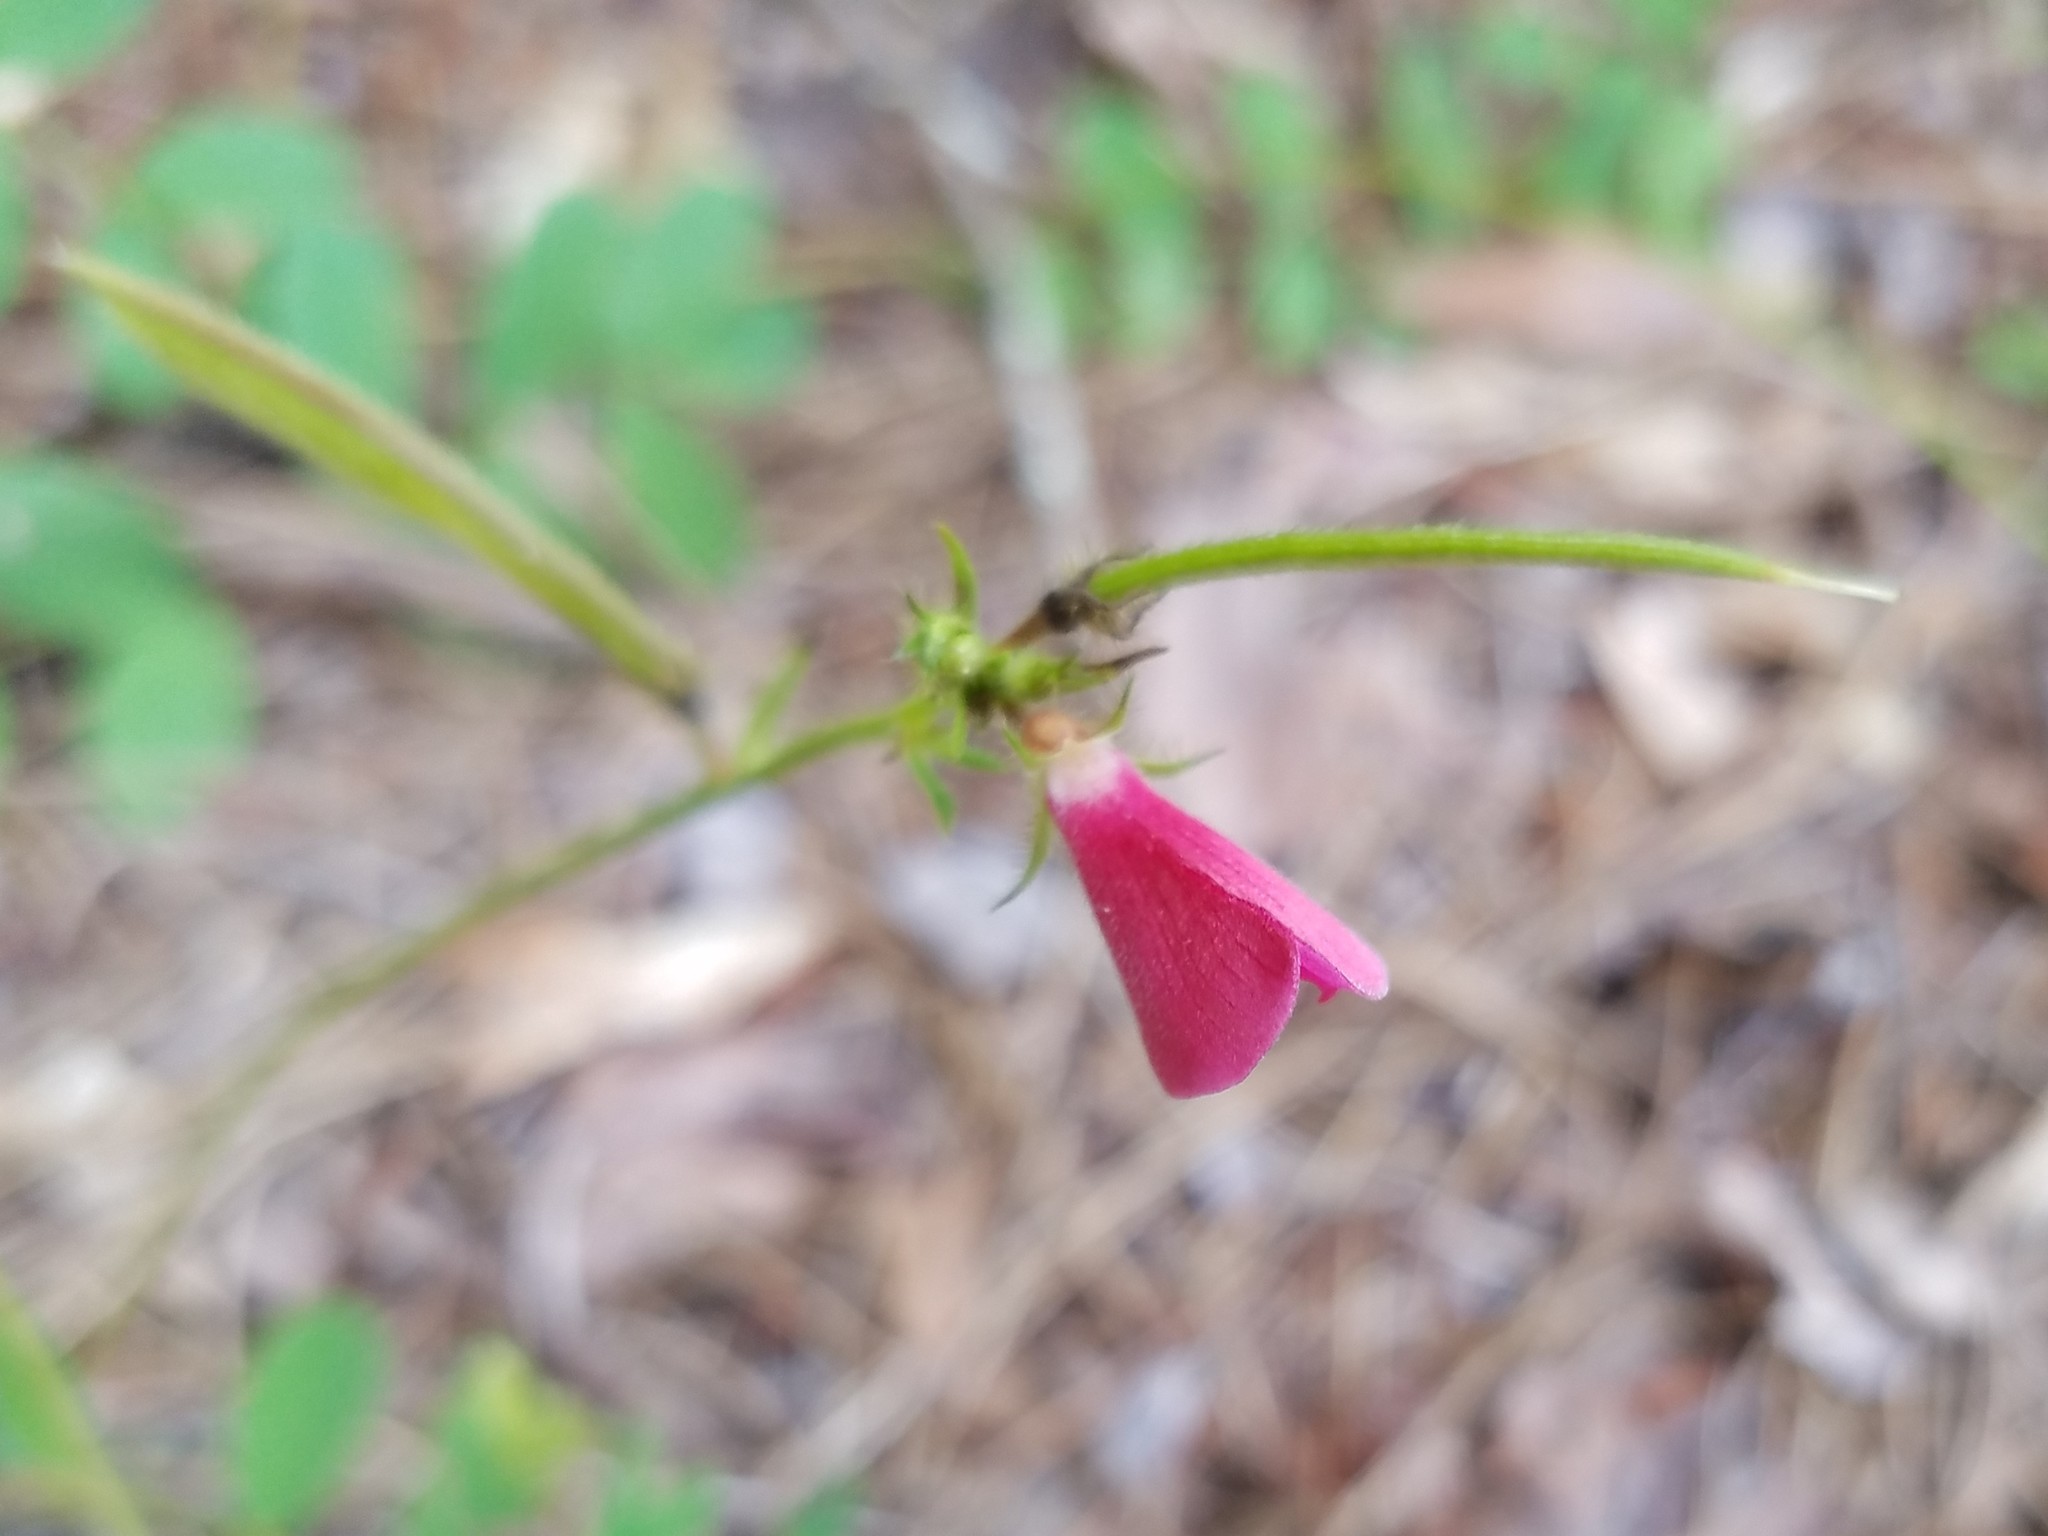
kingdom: Plantae
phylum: Tracheophyta
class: Magnoliopsida
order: Fabales
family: Fabaceae
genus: Tephrosia
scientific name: Tephrosia spicata
